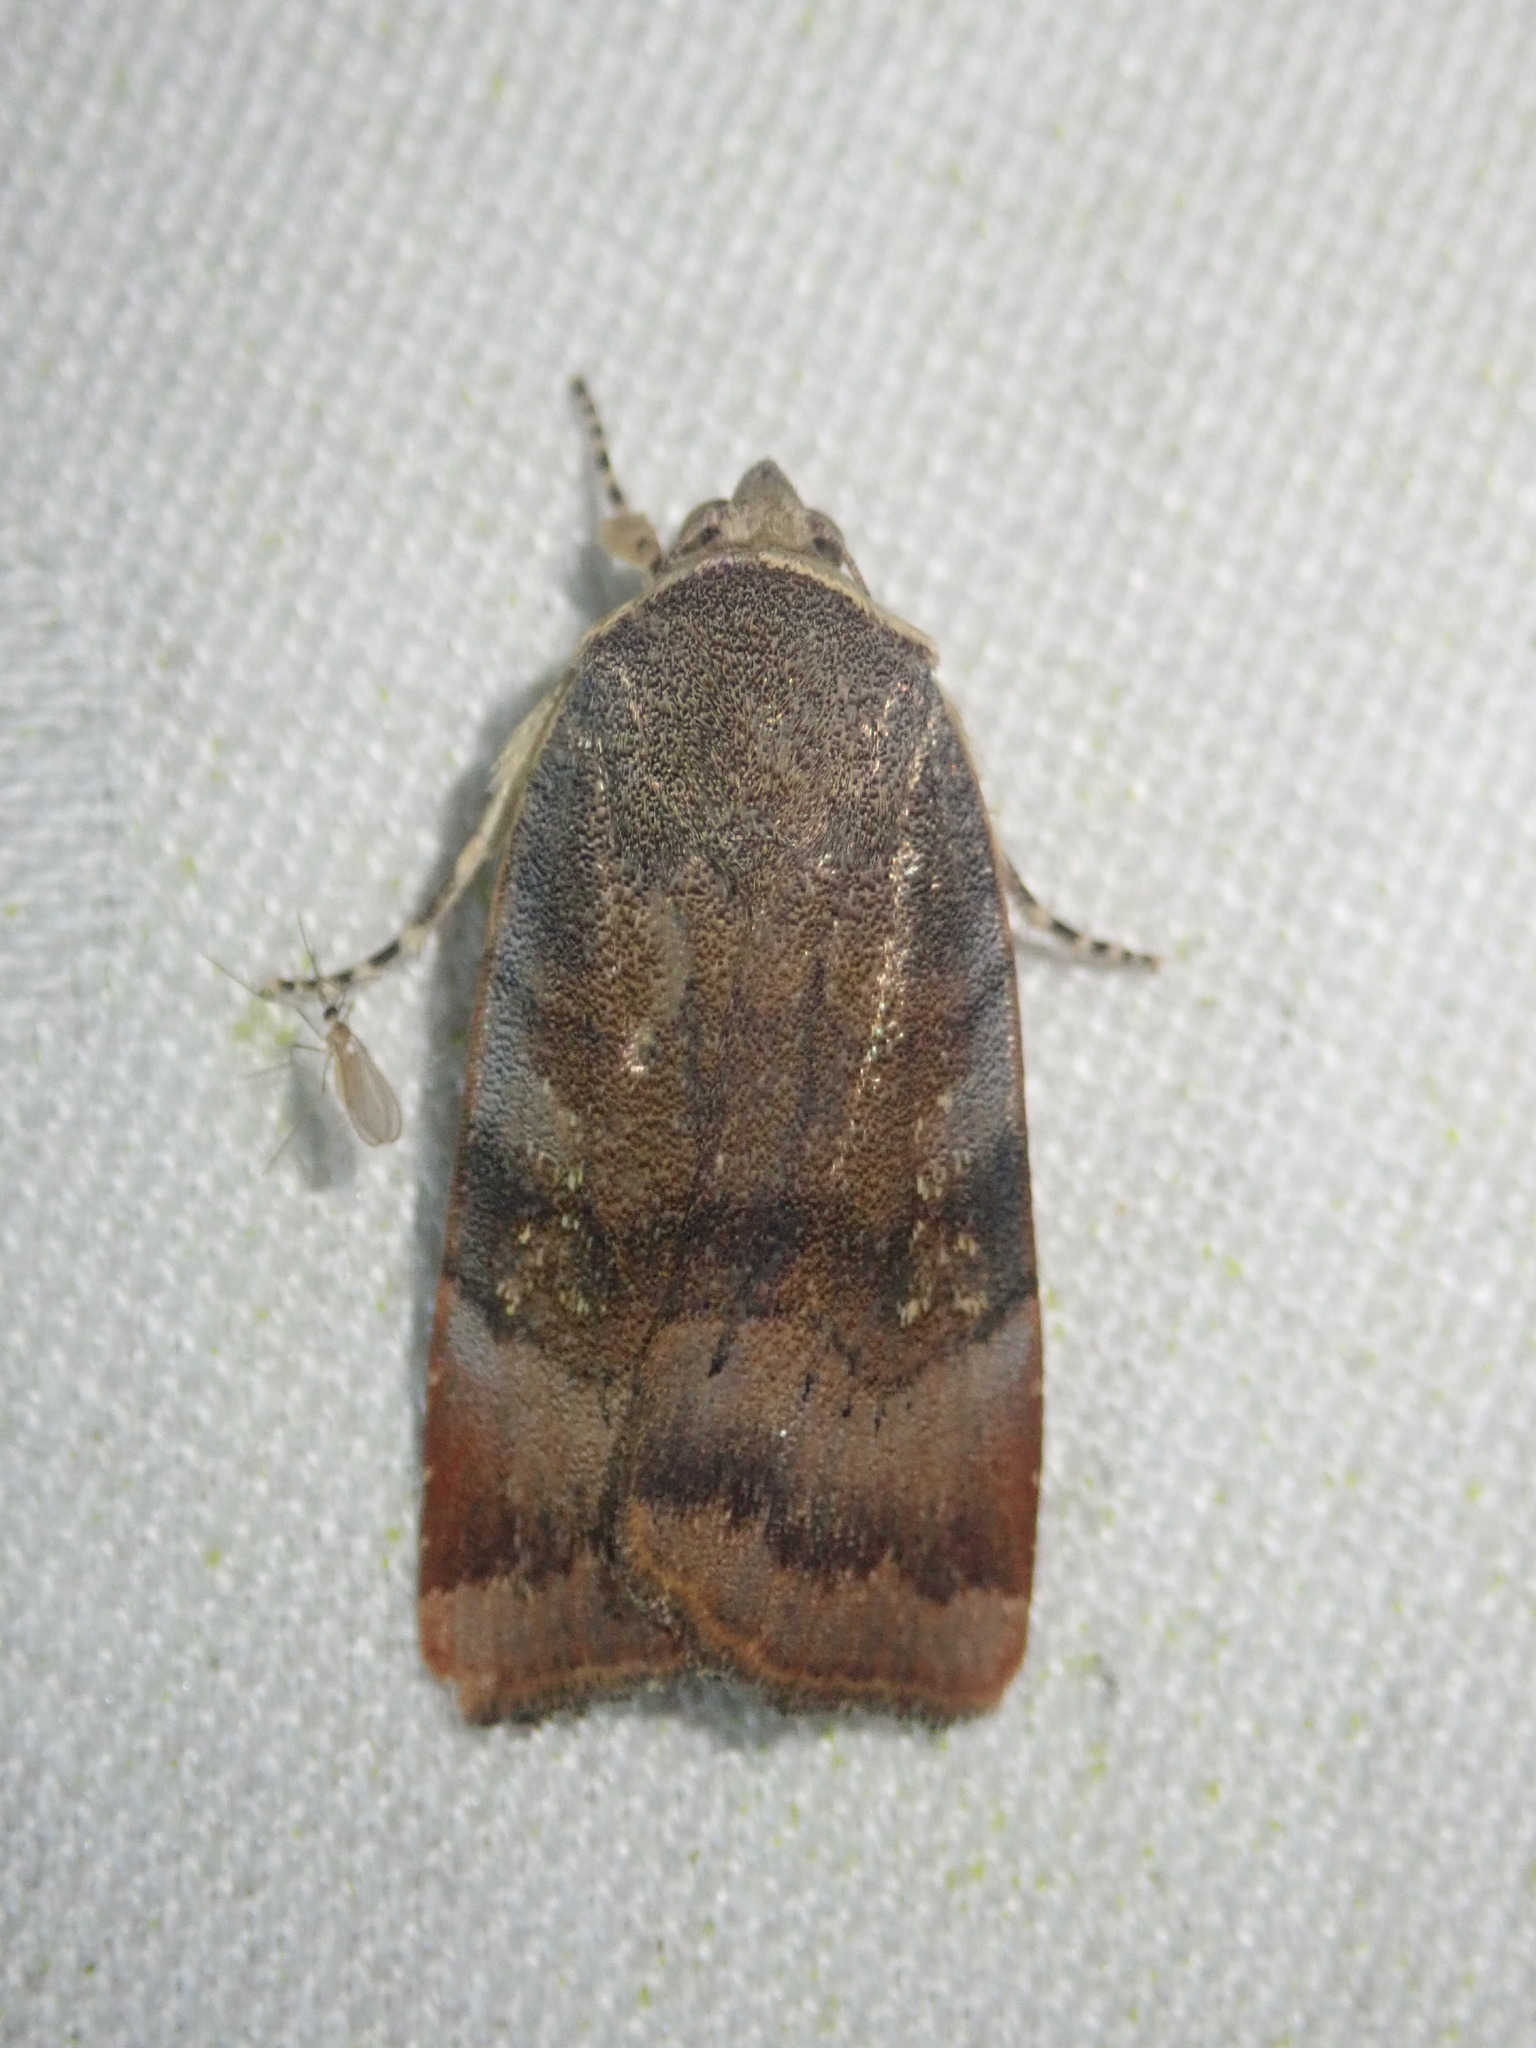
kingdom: Animalia
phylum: Arthropoda
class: Insecta
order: Lepidoptera
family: Noctuidae
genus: Noctua
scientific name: Noctua
